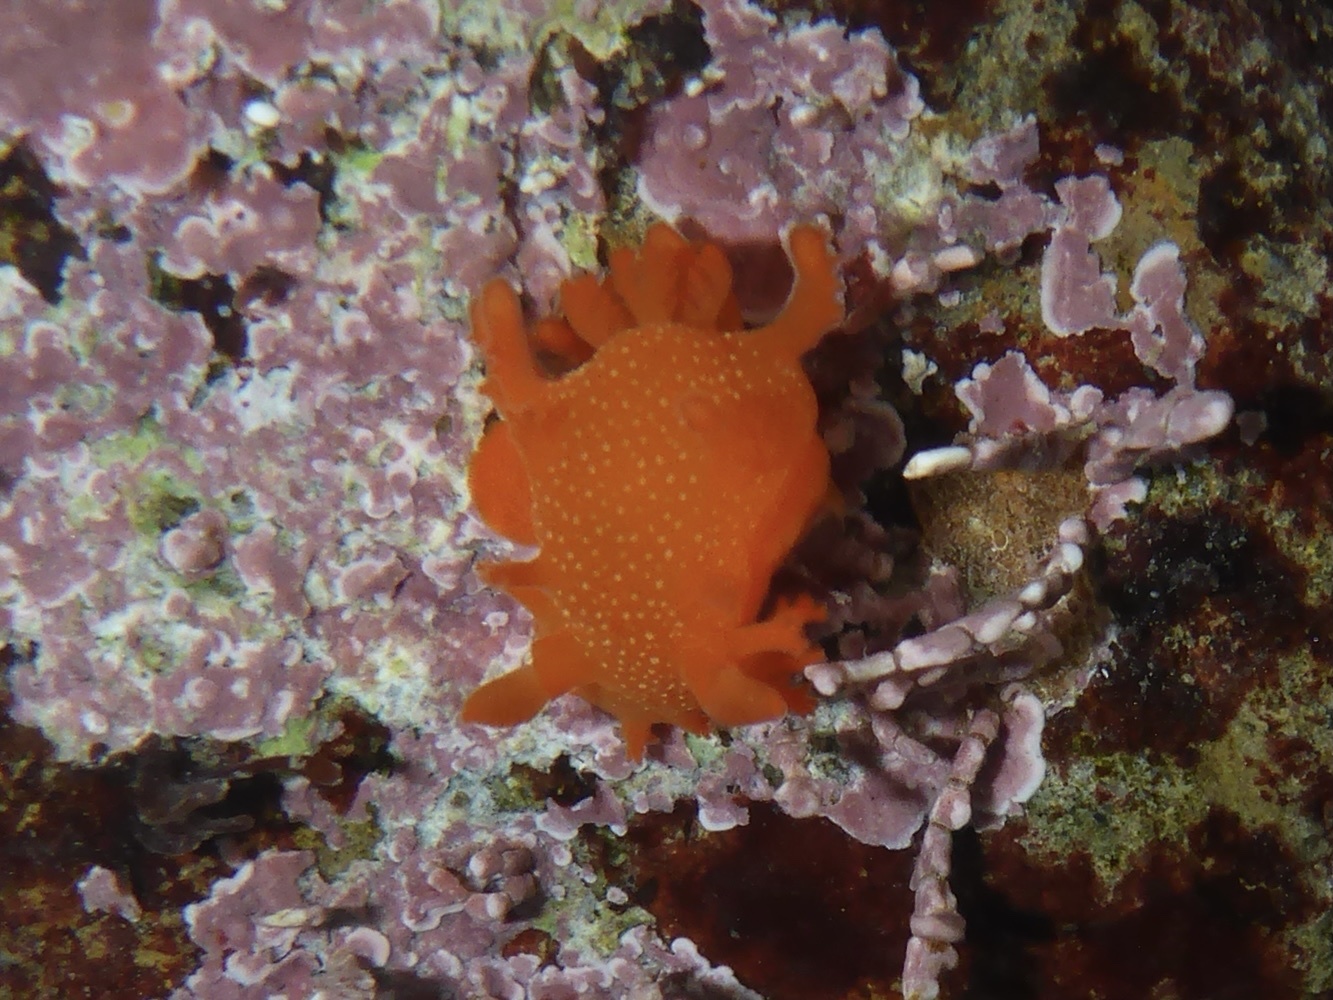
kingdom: Animalia
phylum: Mollusca
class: Gastropoda
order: Nudibranchia
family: Polyceridae
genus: Triopha
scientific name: Triopha maculata
